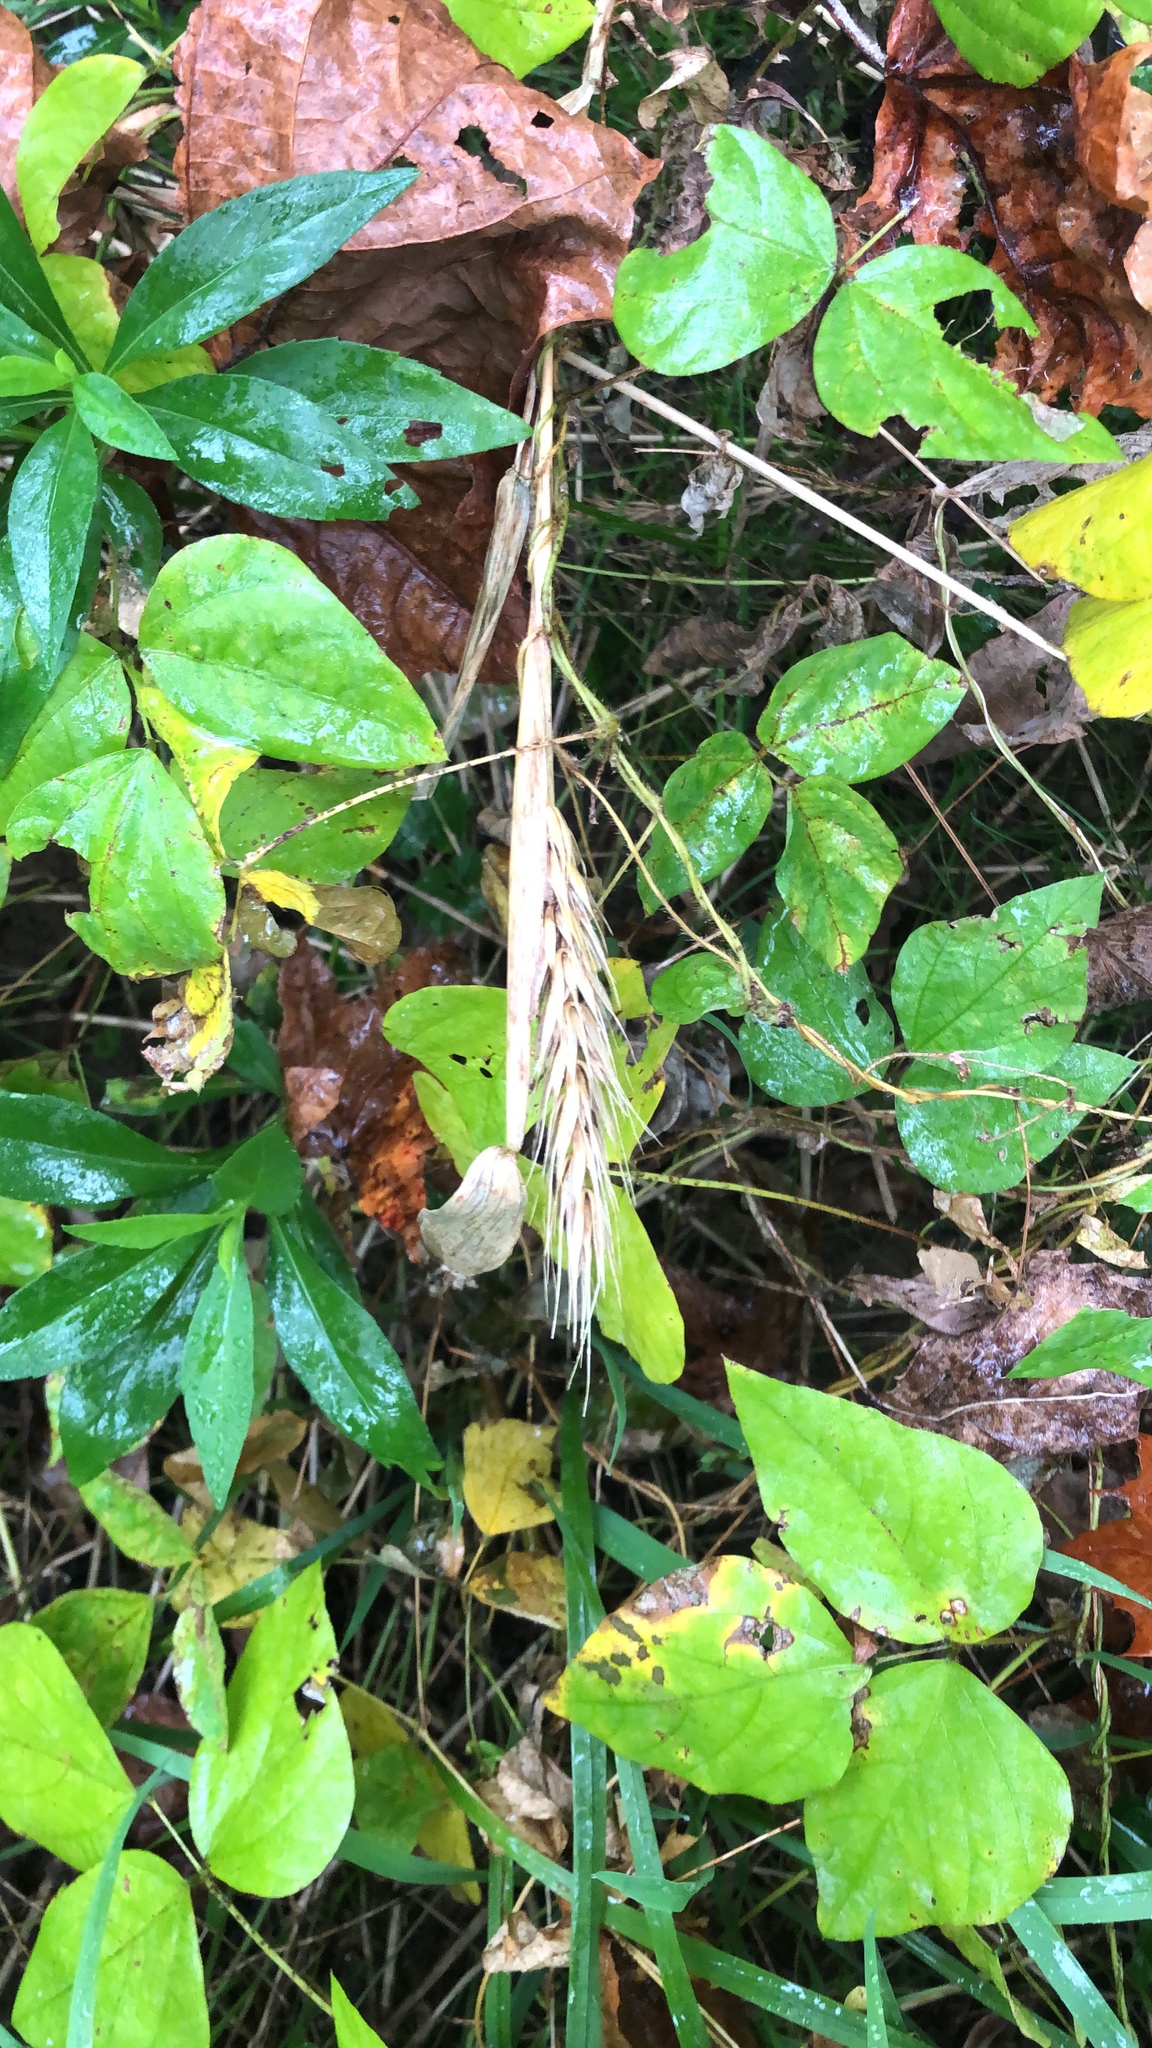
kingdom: Plantae
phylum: Tracheophyta
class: Liliopsida
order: Poales
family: Poaceae
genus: Elymus
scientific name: Elymus virginicus
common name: Common eastern wildrye
